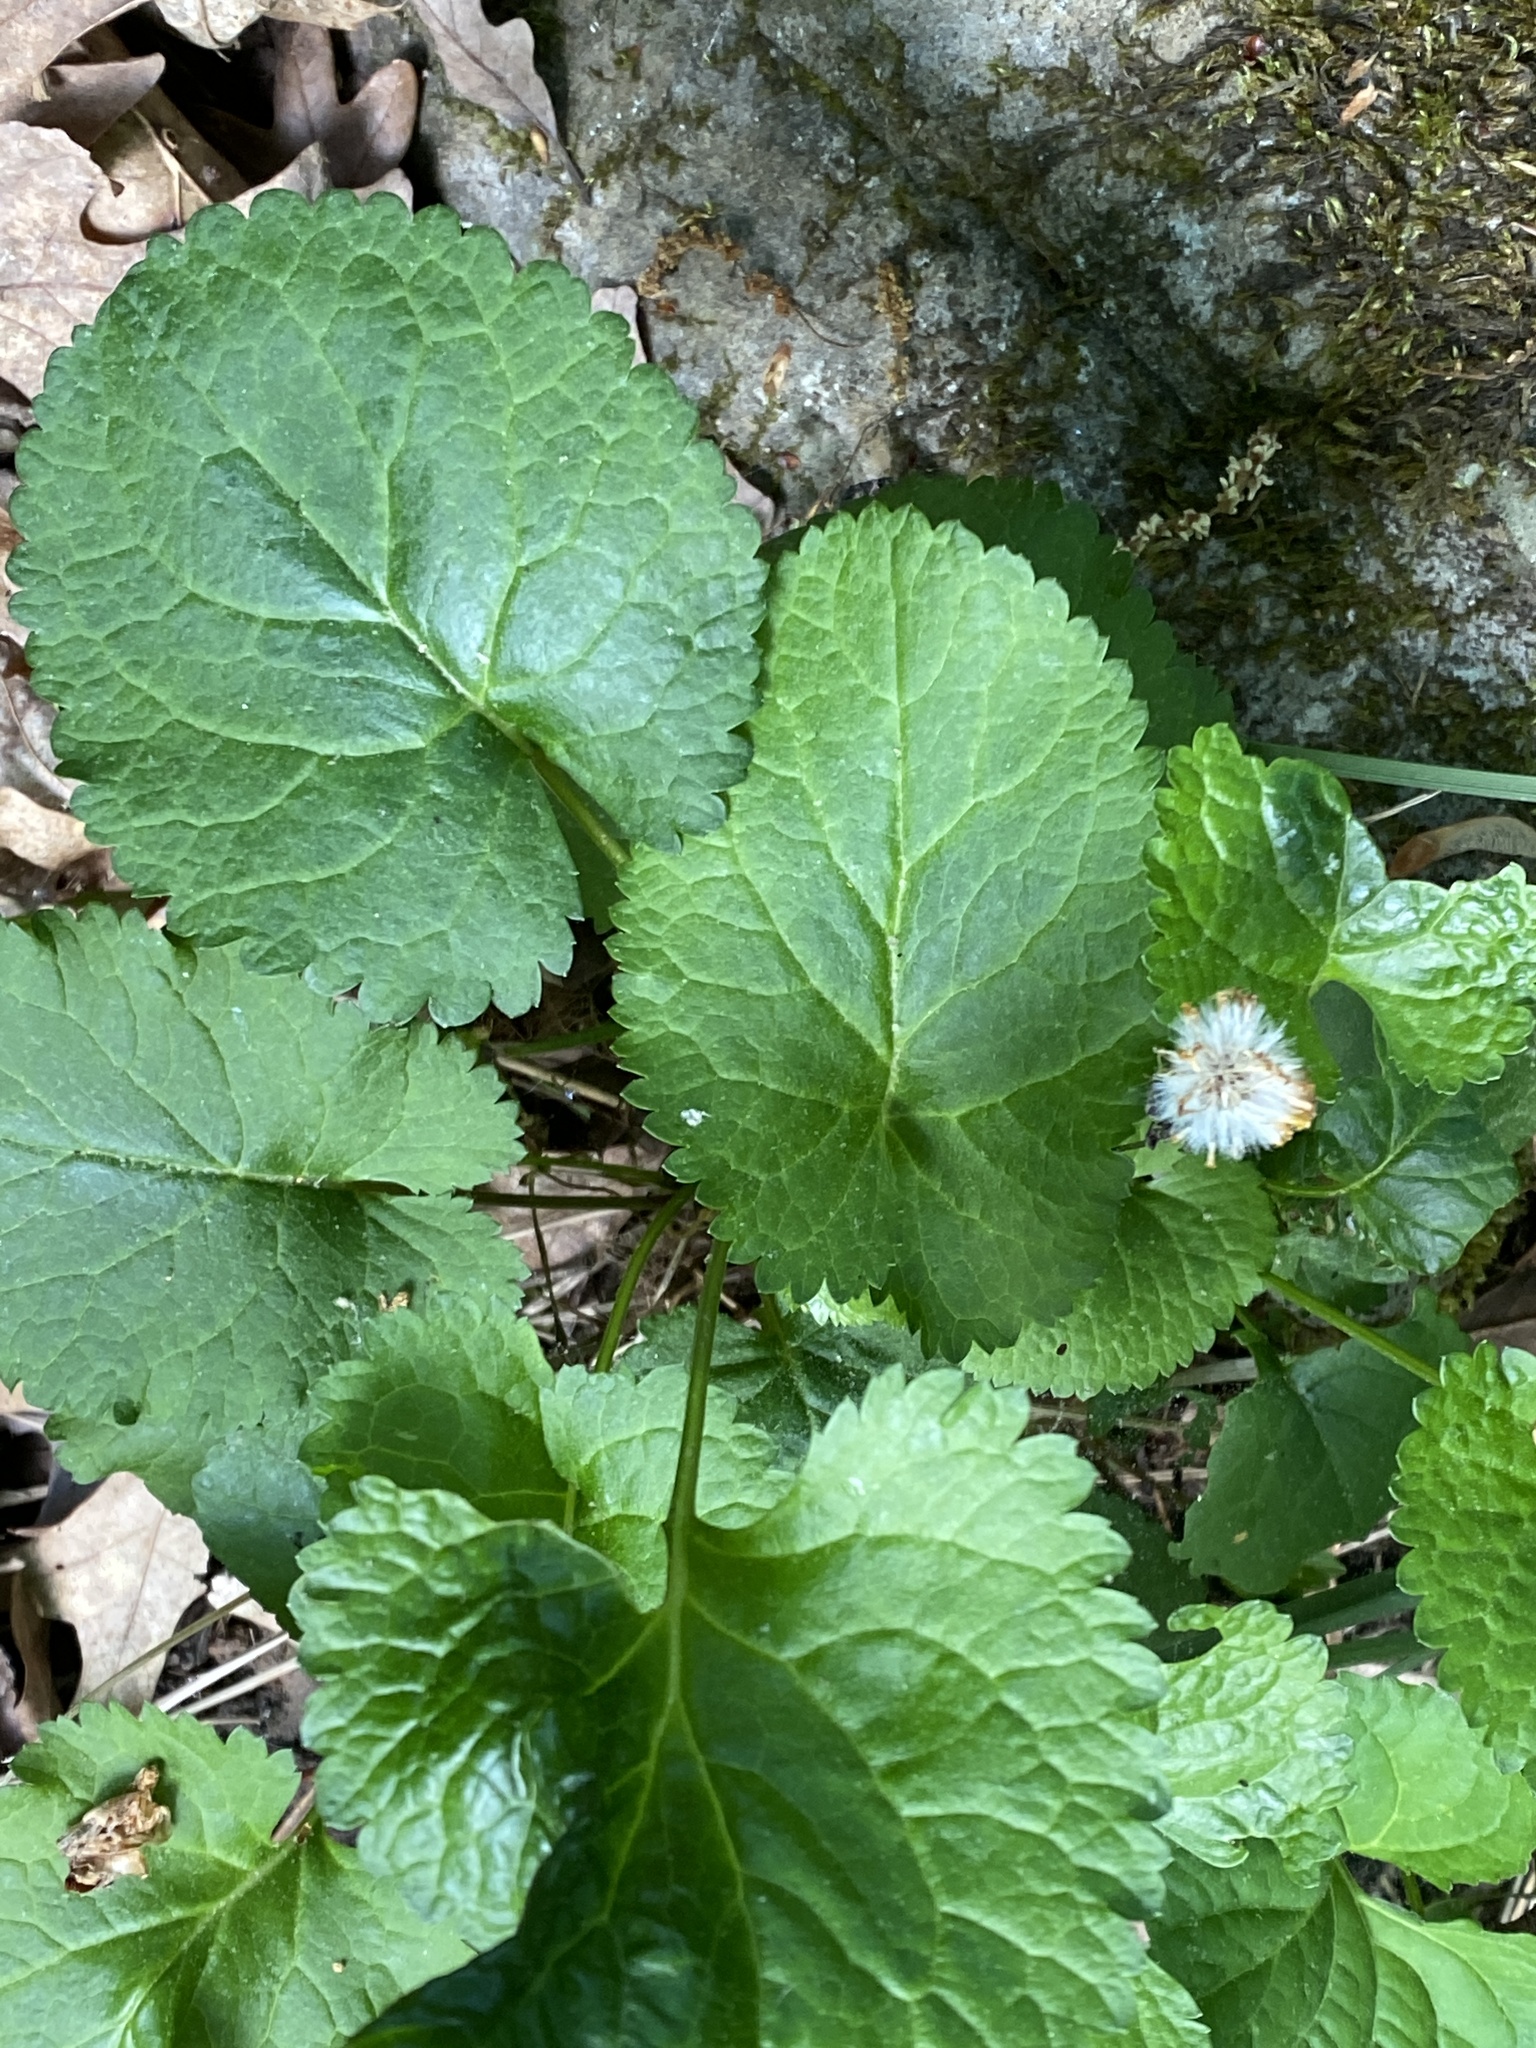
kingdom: Plantae
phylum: Tracheophyta
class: Magnoliopsida
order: Asterales
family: Asteraceae
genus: Packera
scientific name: Packera aurea
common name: Golden groundsel
